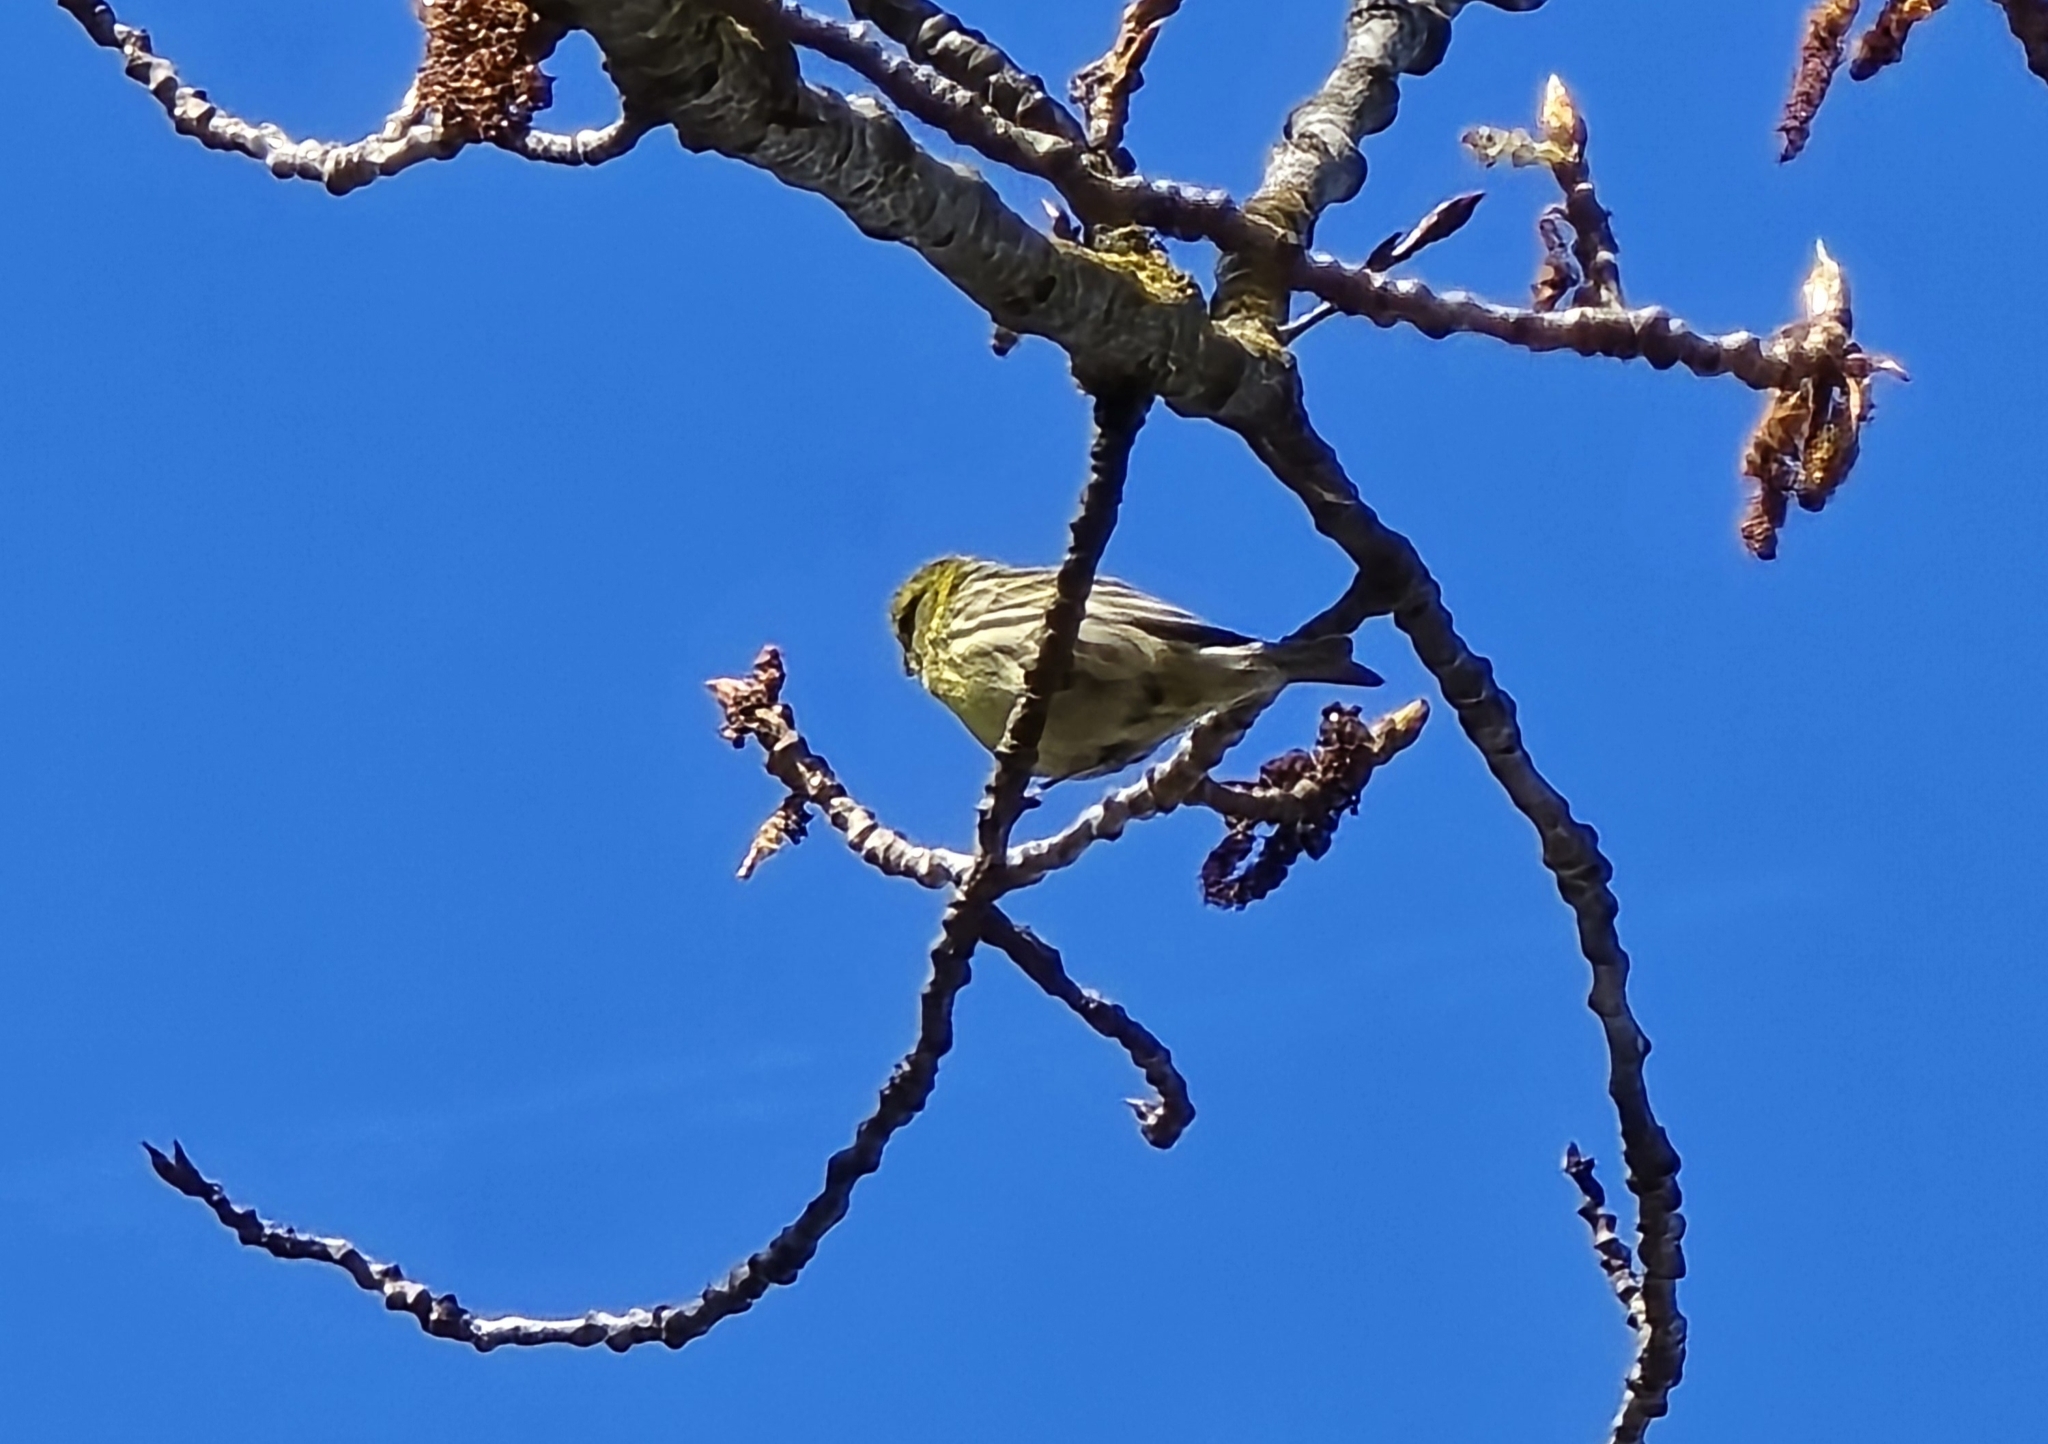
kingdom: Animalia
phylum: Chordata
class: Aves
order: Passeriformes
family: Fringillidae
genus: Serinus
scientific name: Serinus serinus
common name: European serin
